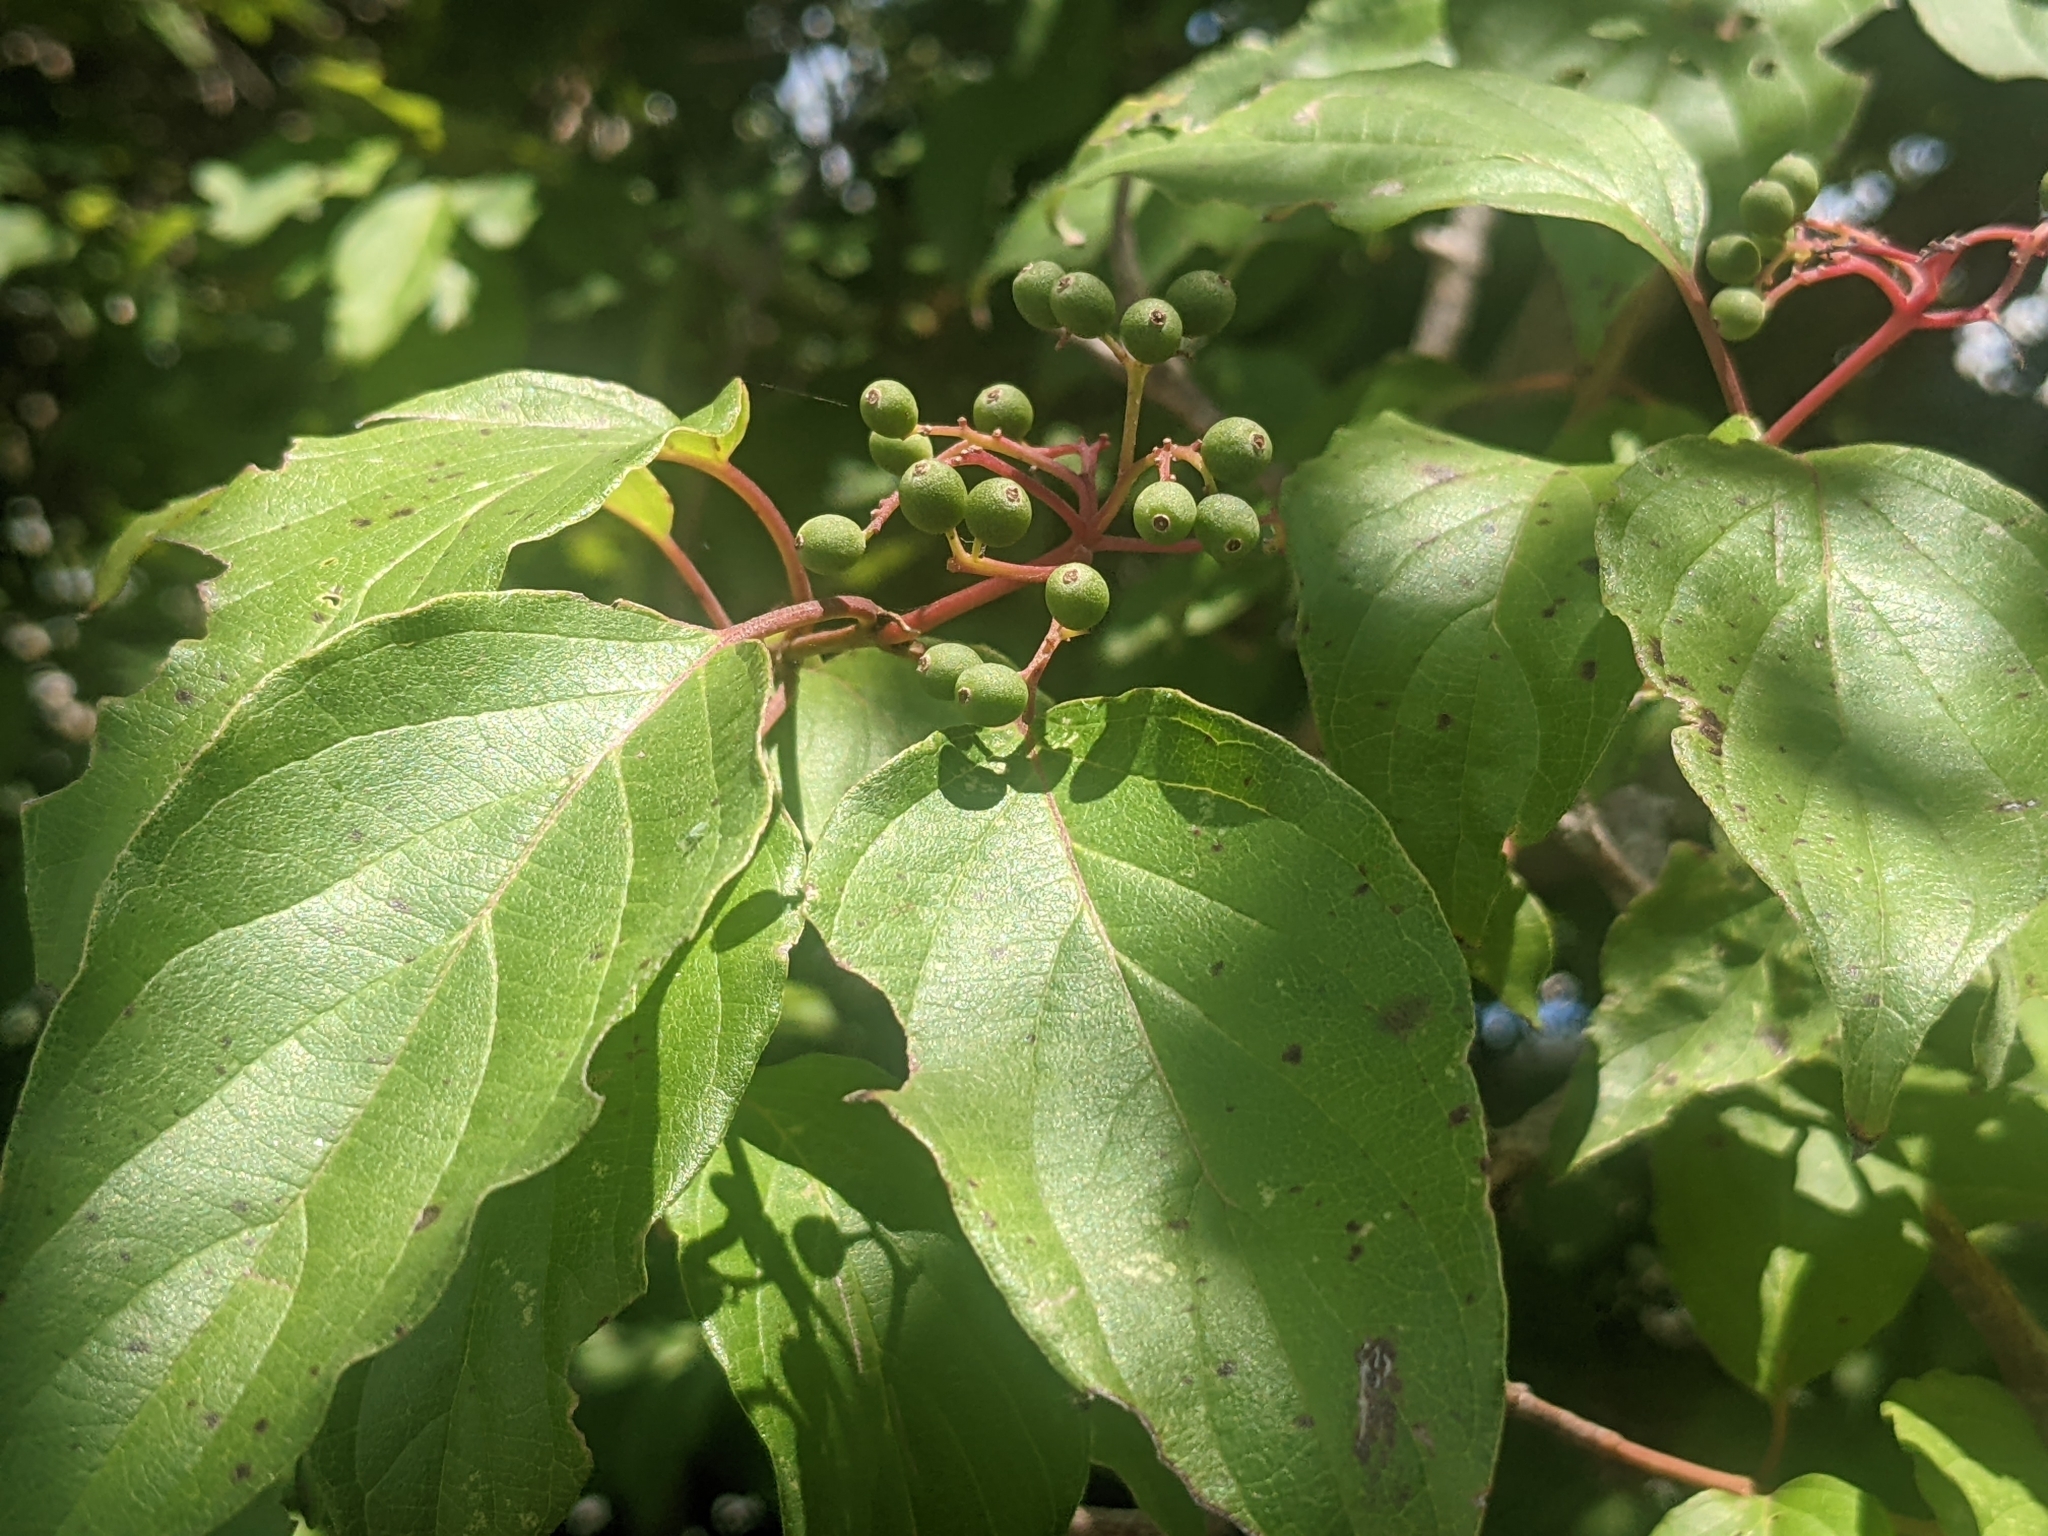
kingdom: Plantae
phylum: Tracheophyta
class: Magnoliopsida
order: Cornales
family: Cornaceae
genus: Cornus
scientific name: Cornus drummondii
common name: Rough-leaf dogwood
